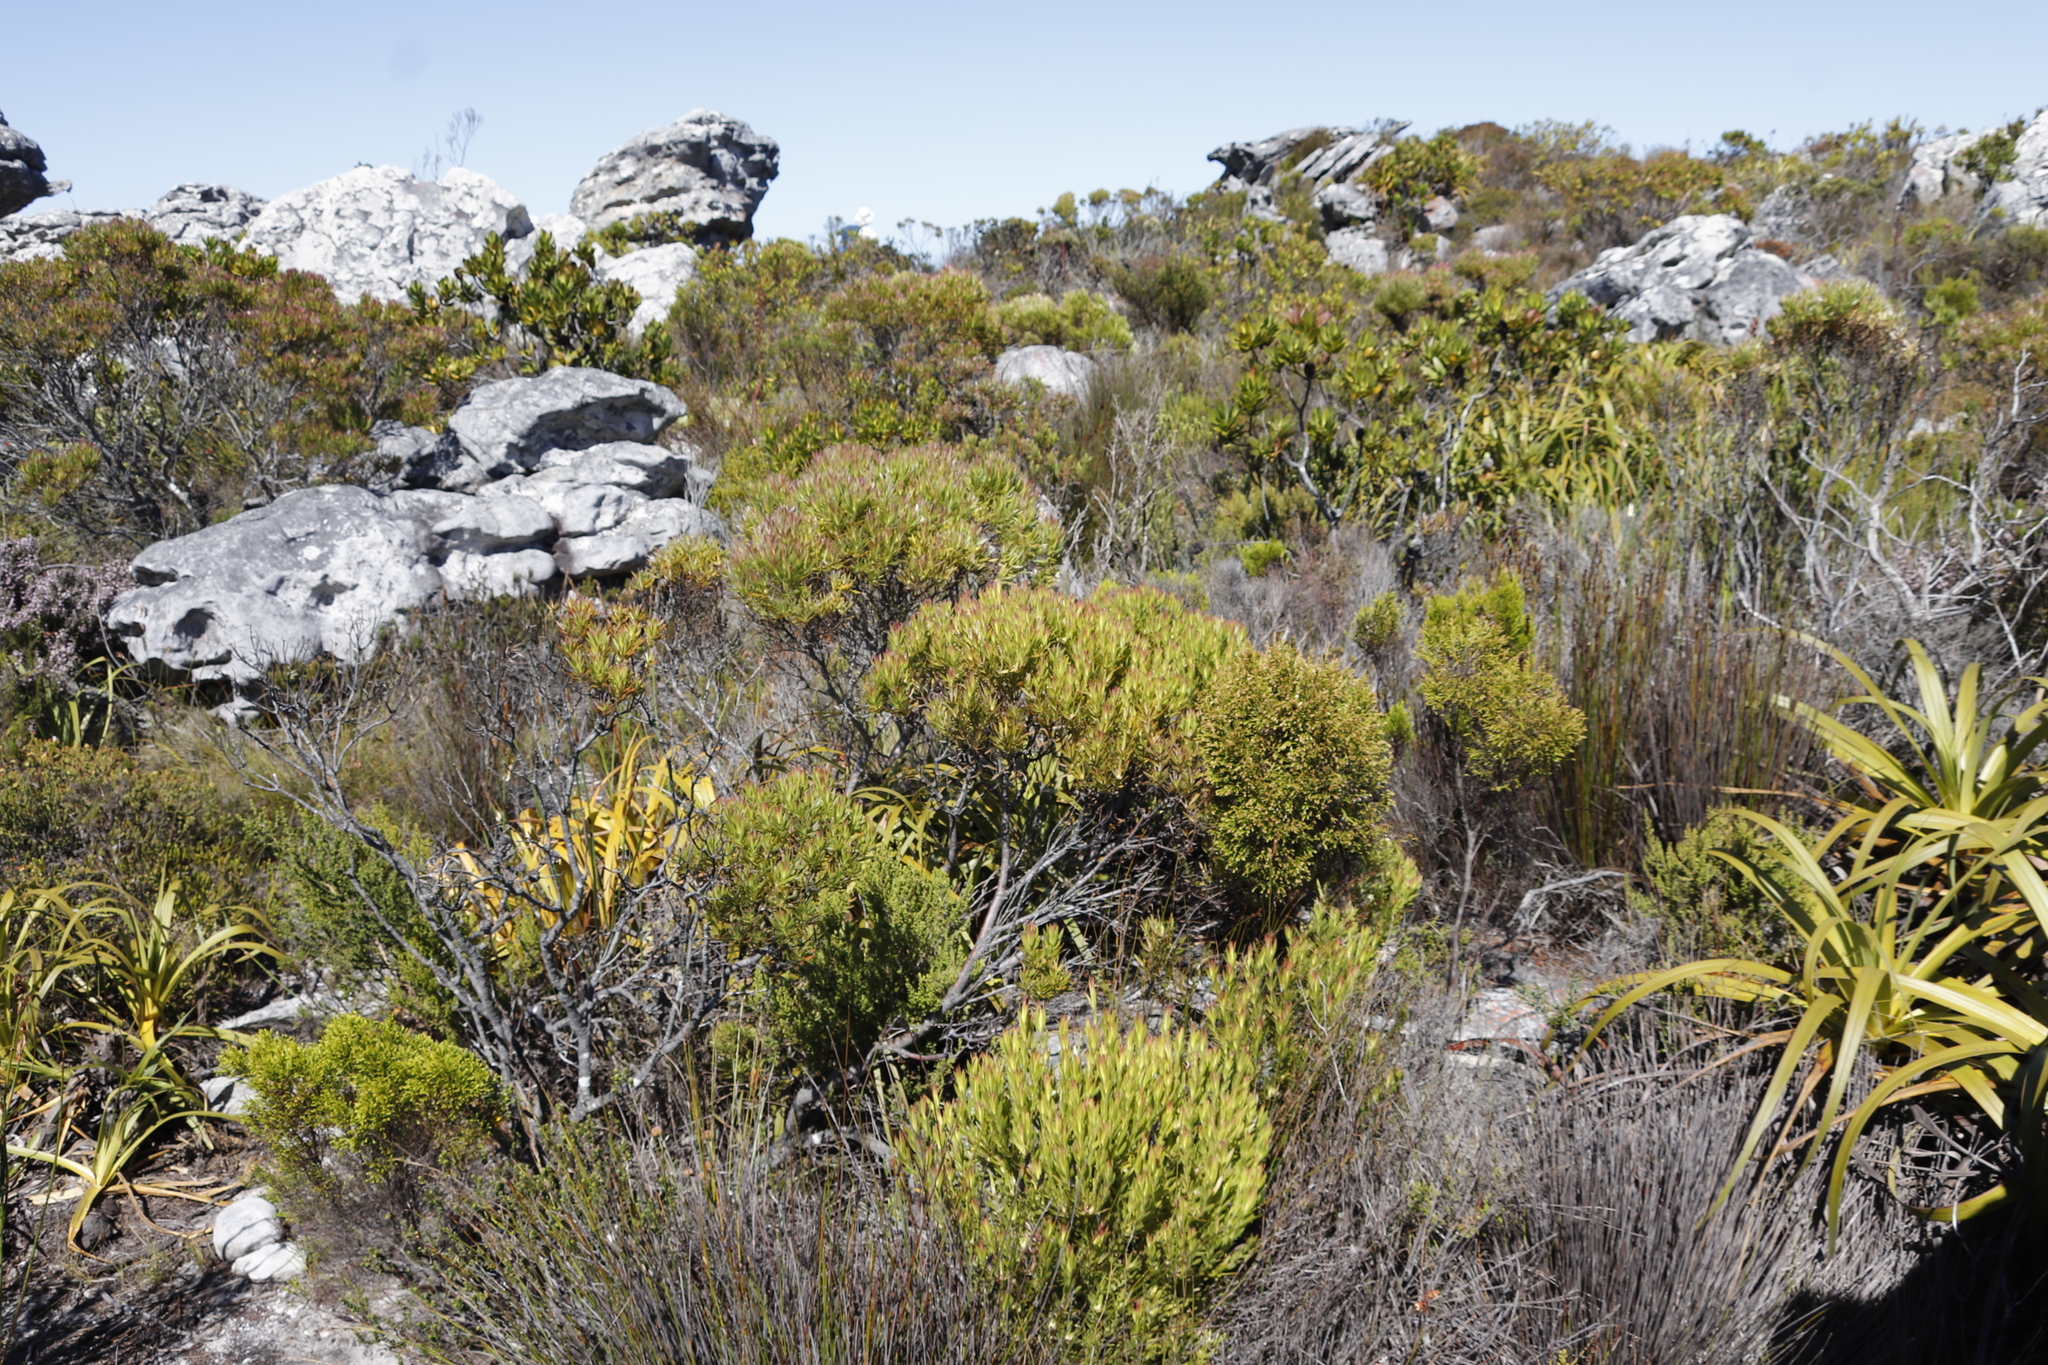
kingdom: Plantae
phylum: Tracheophyta
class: Magnoliopsida
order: Proteales
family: Proteaceae
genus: Leucadendron
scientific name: Leucadendron xanthoconus
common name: Sickle-leaf conebush
